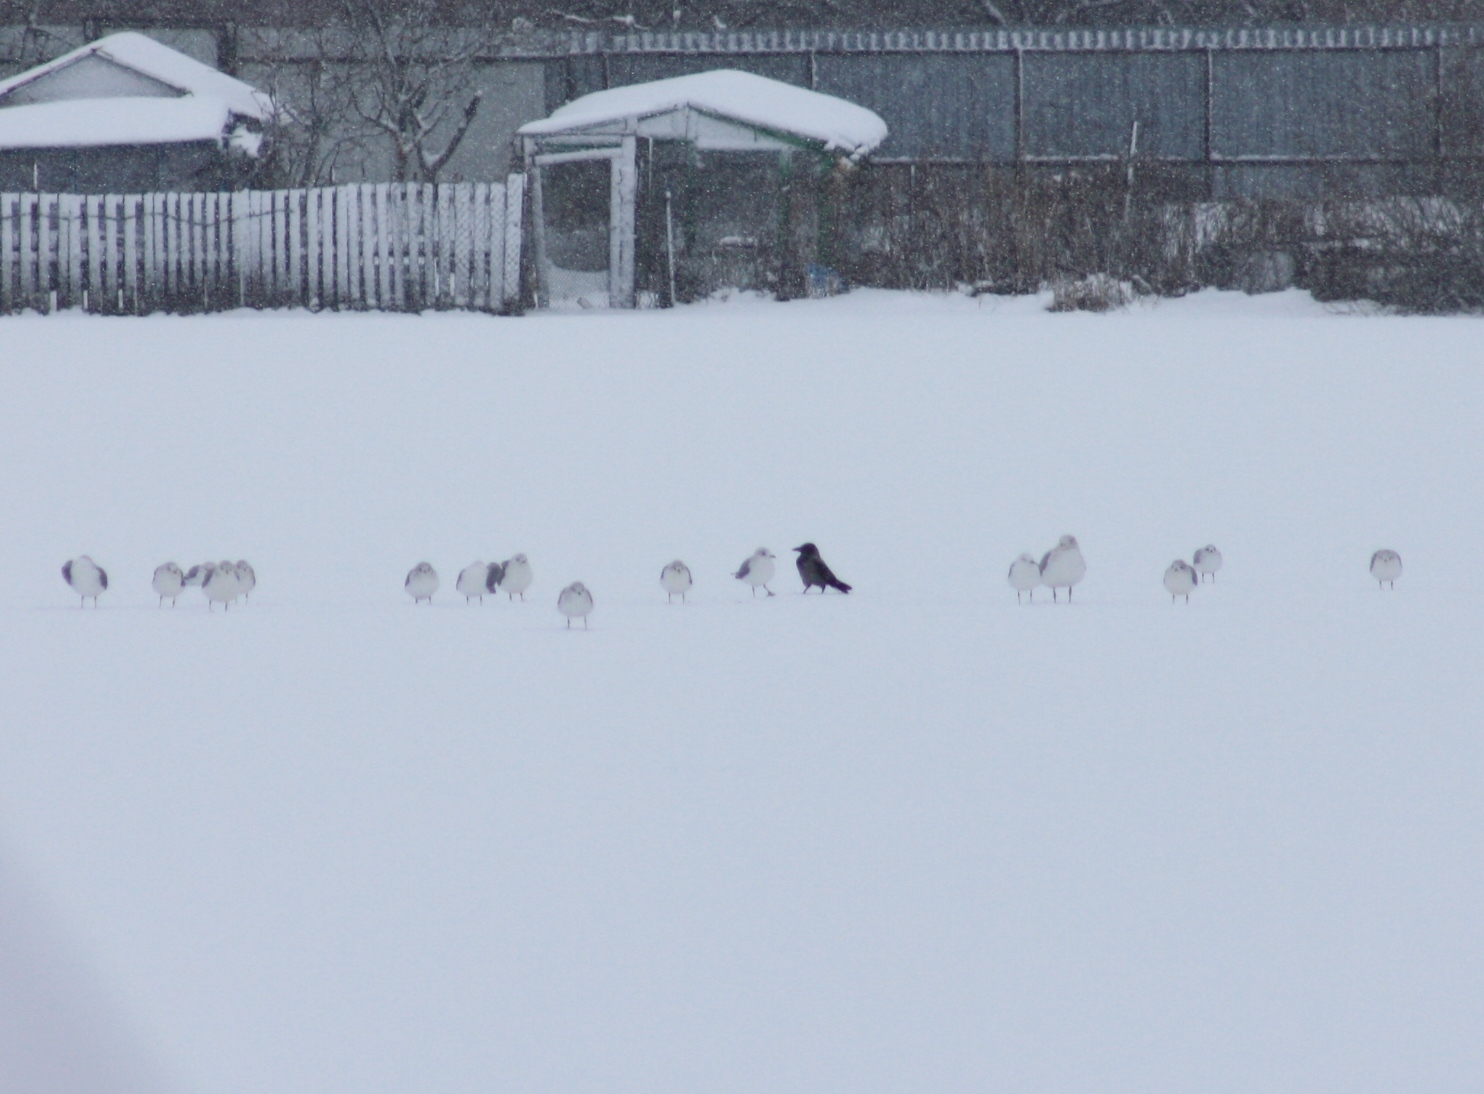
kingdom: Animalia
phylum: Chordata
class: Aves
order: Passeriformes
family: Corvidae
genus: Corvus
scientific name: Corvus cornix
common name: Hooded crow
